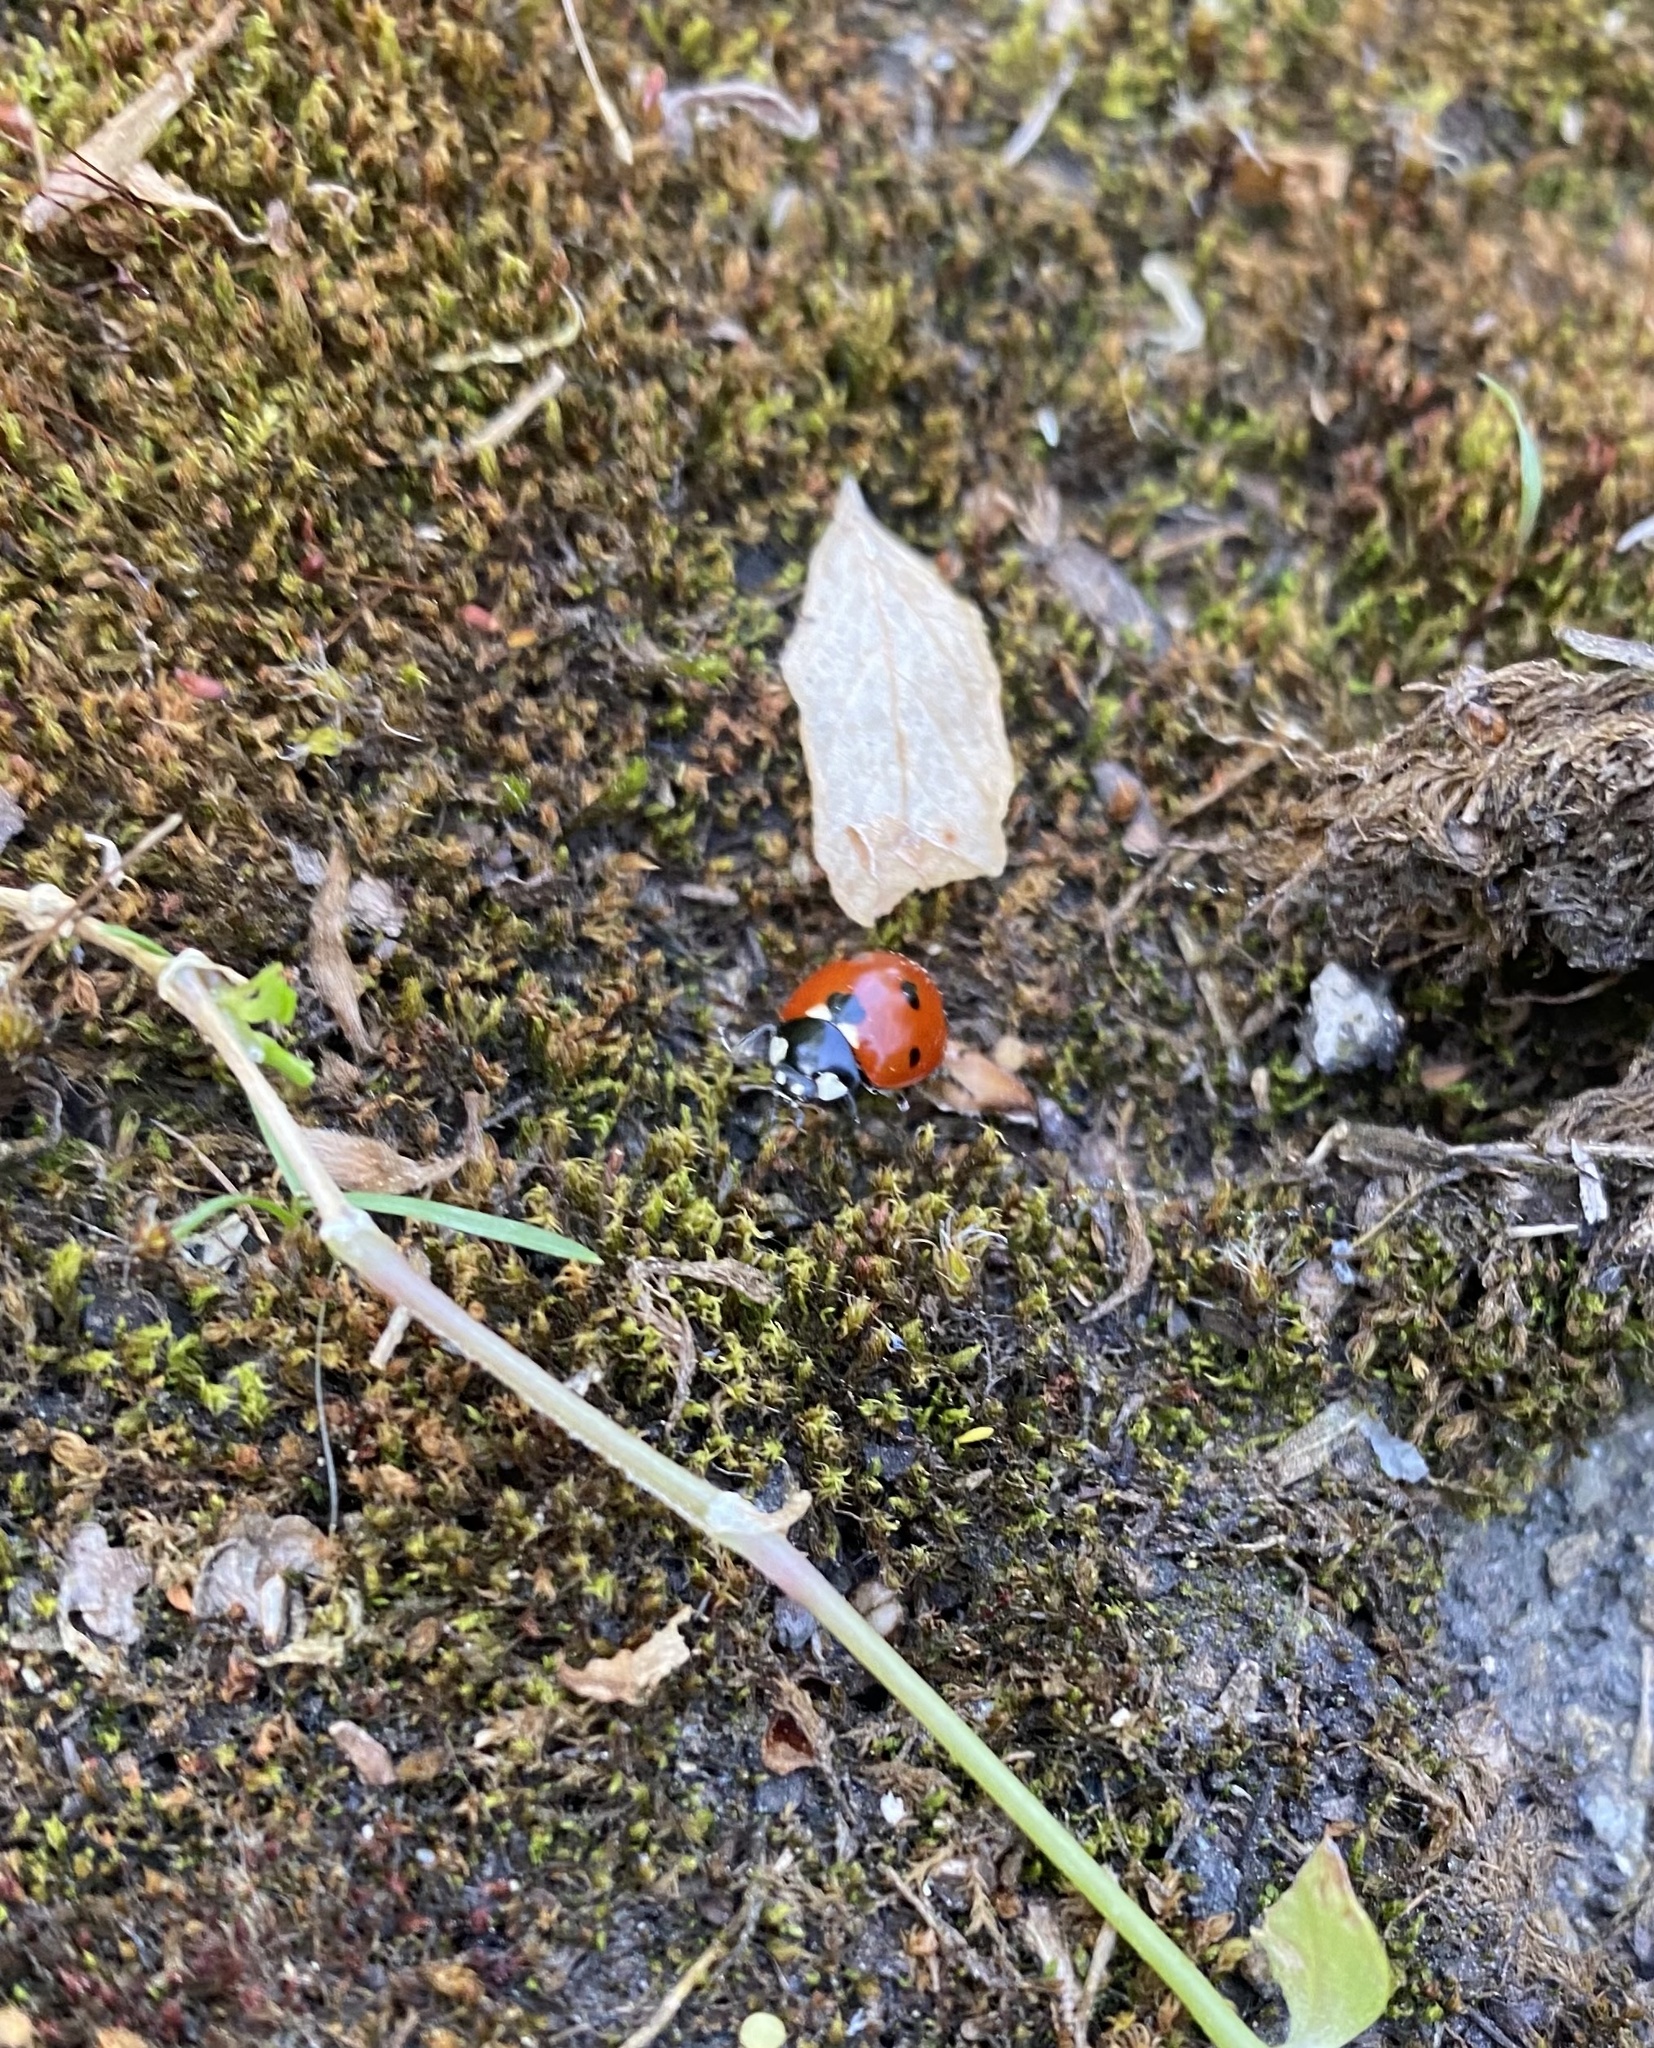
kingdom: Animalia
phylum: Arthropoda
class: Insecta
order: Coleoptera
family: Coccinellidae
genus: Coccinella
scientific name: Coccinella septempunctata
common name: Sevenspotted lady beetle
